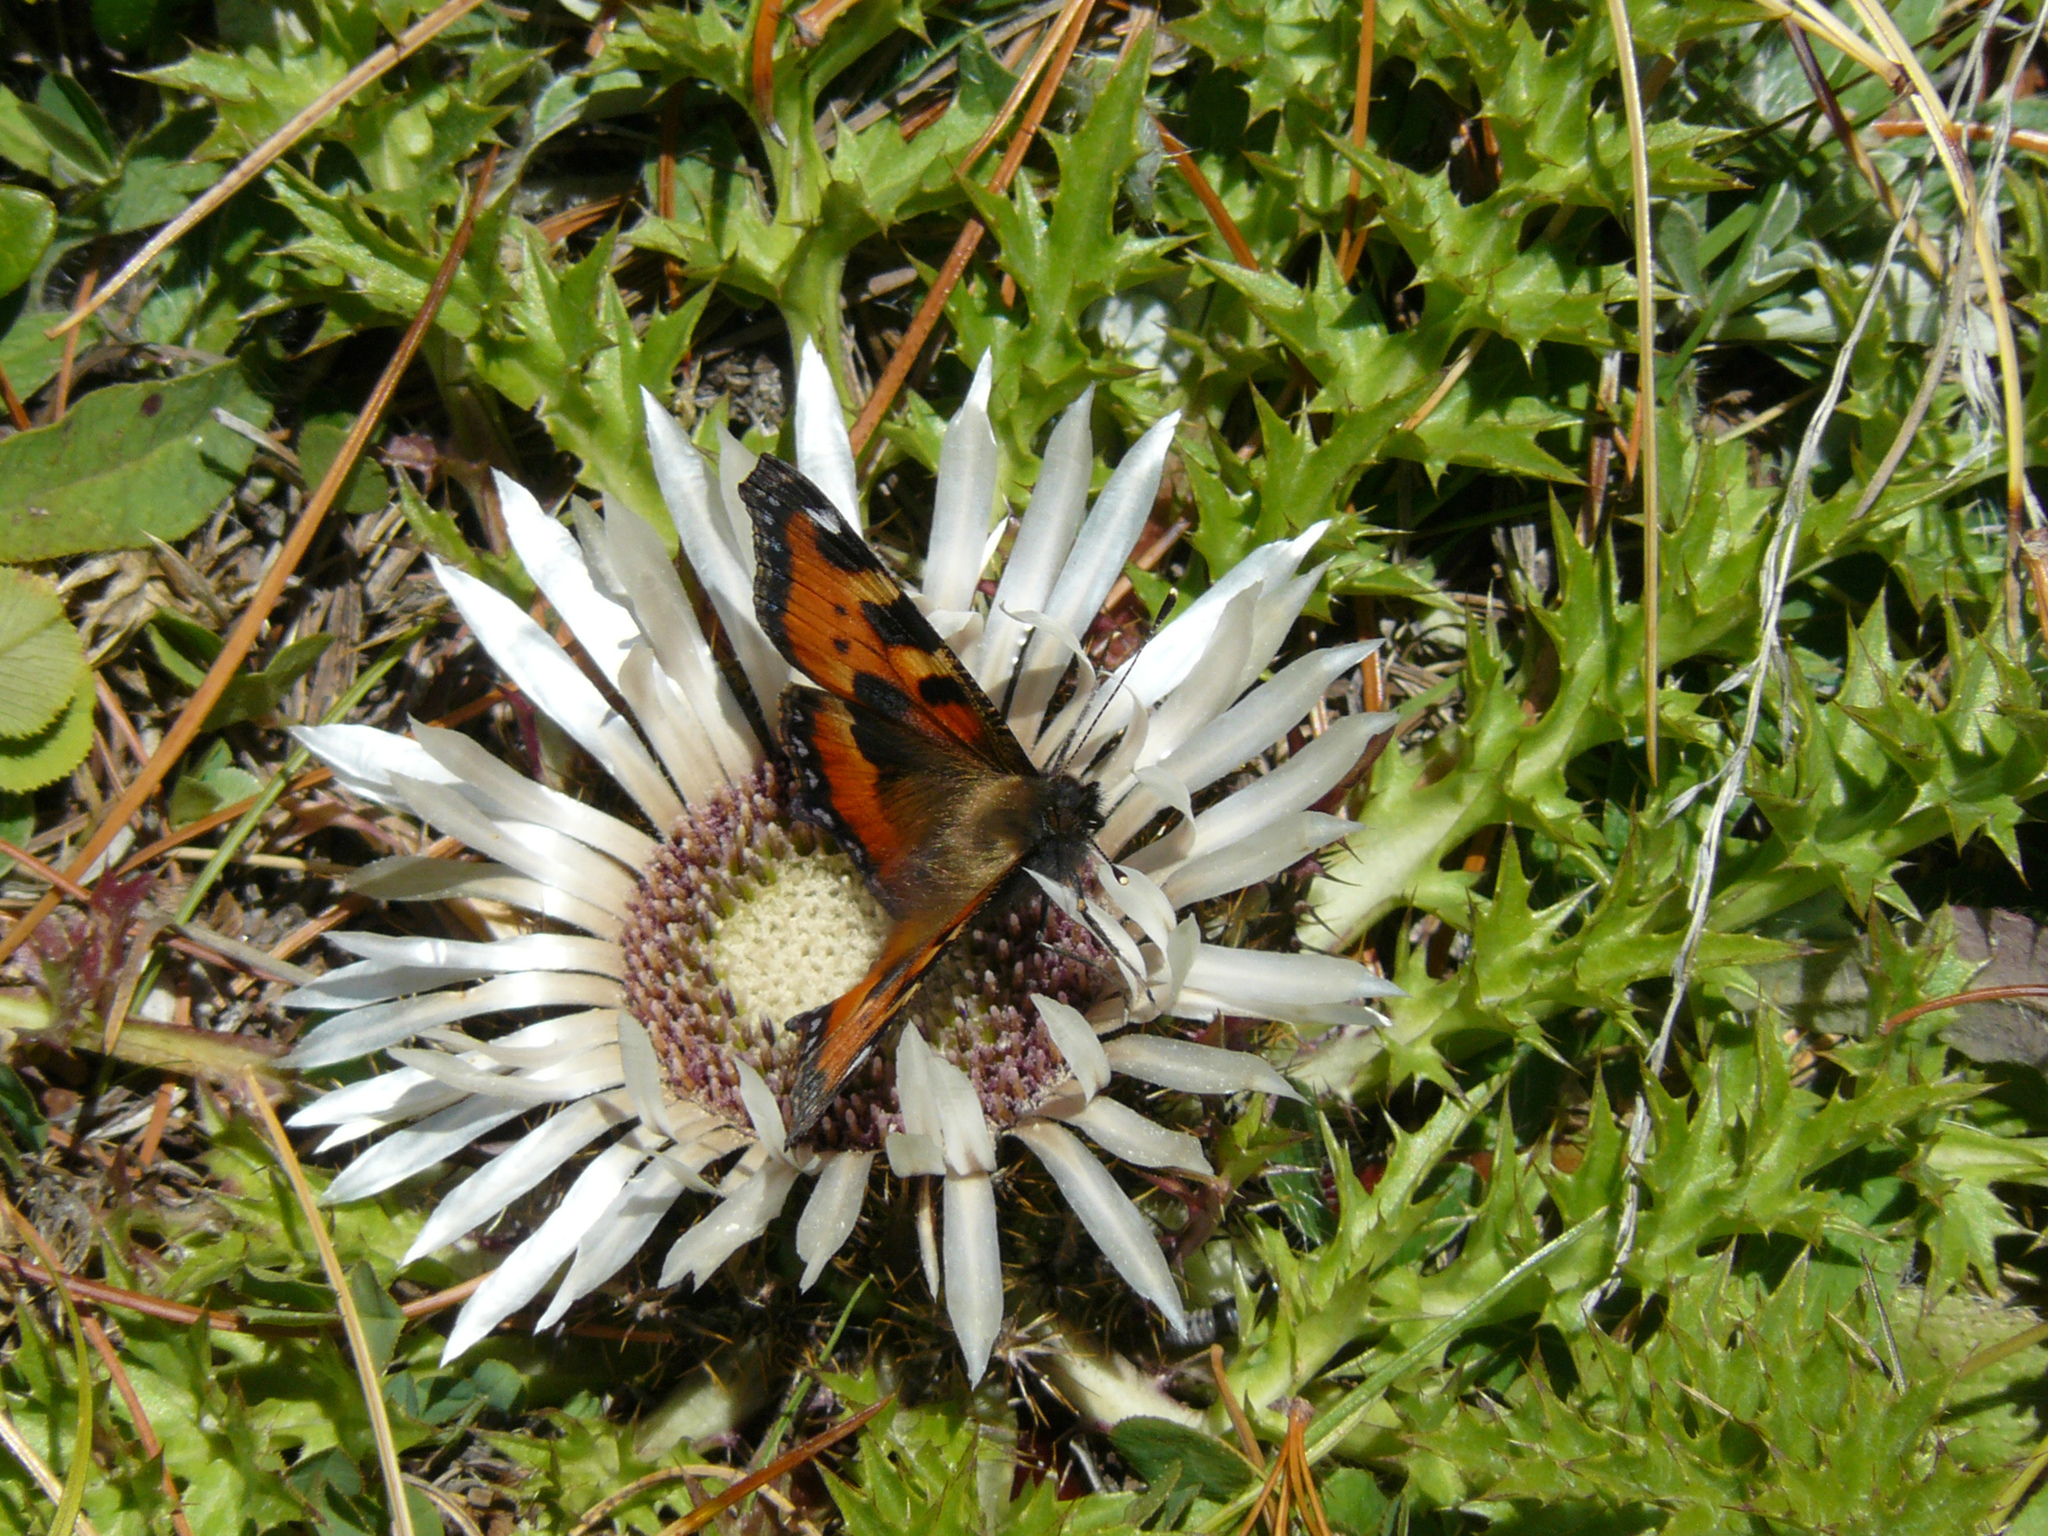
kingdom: Animalia
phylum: Arthropoda
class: Insecta
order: Lepidoptera
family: Nymphalidae
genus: Aglais
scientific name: Aglais urticae
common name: Small tortoiseshell
